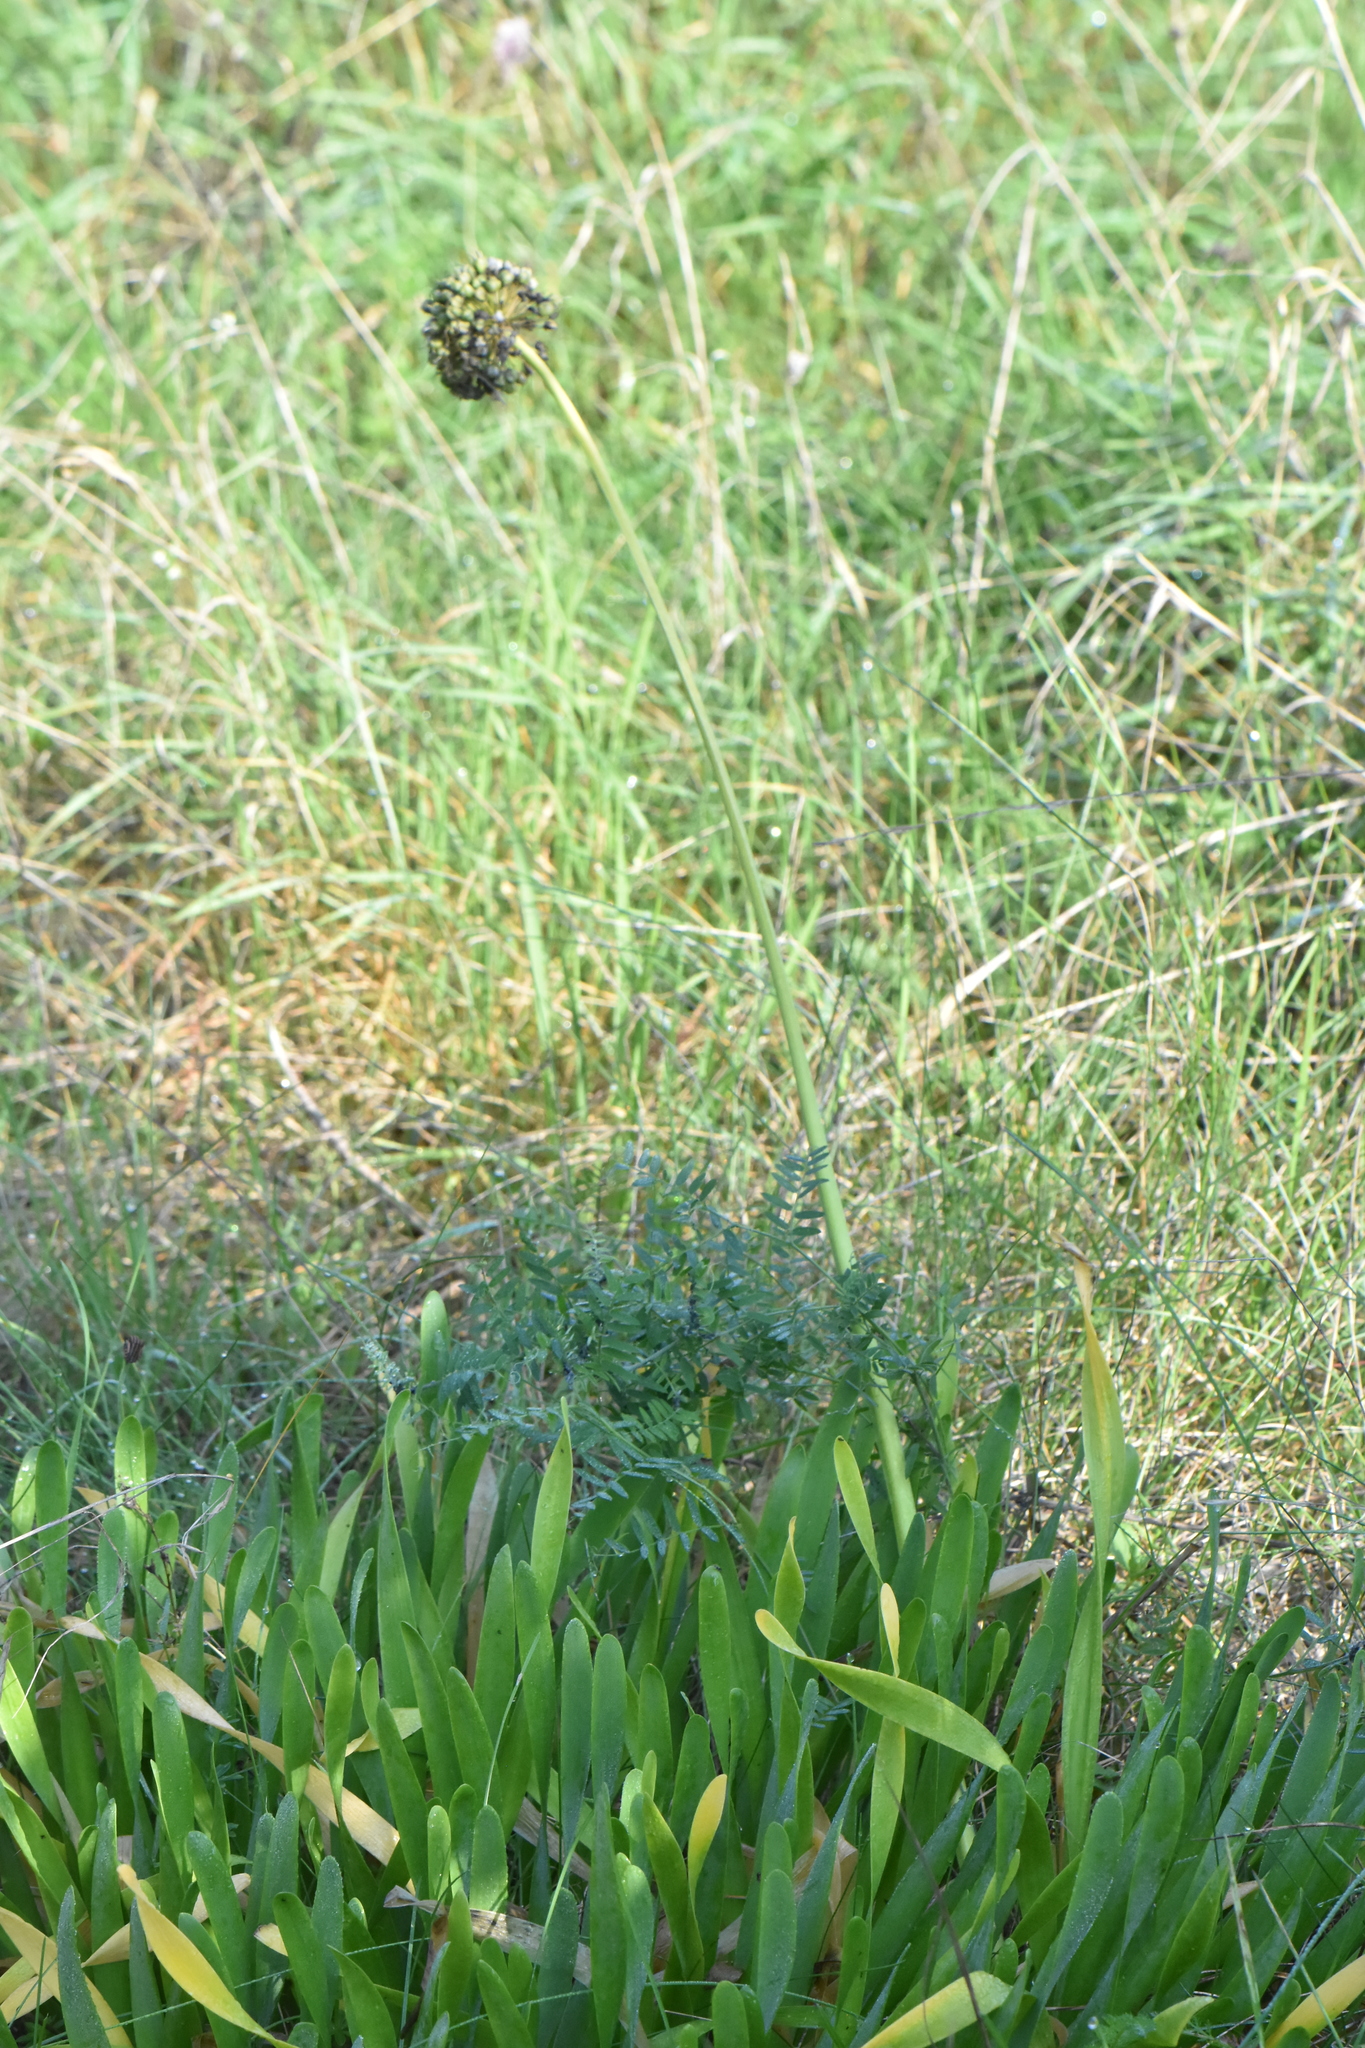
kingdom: Plantae
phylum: Tracheophyta
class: Liliopsida
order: Asparagales
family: Amaryllidaceae
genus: Allium
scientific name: Allium nutans
